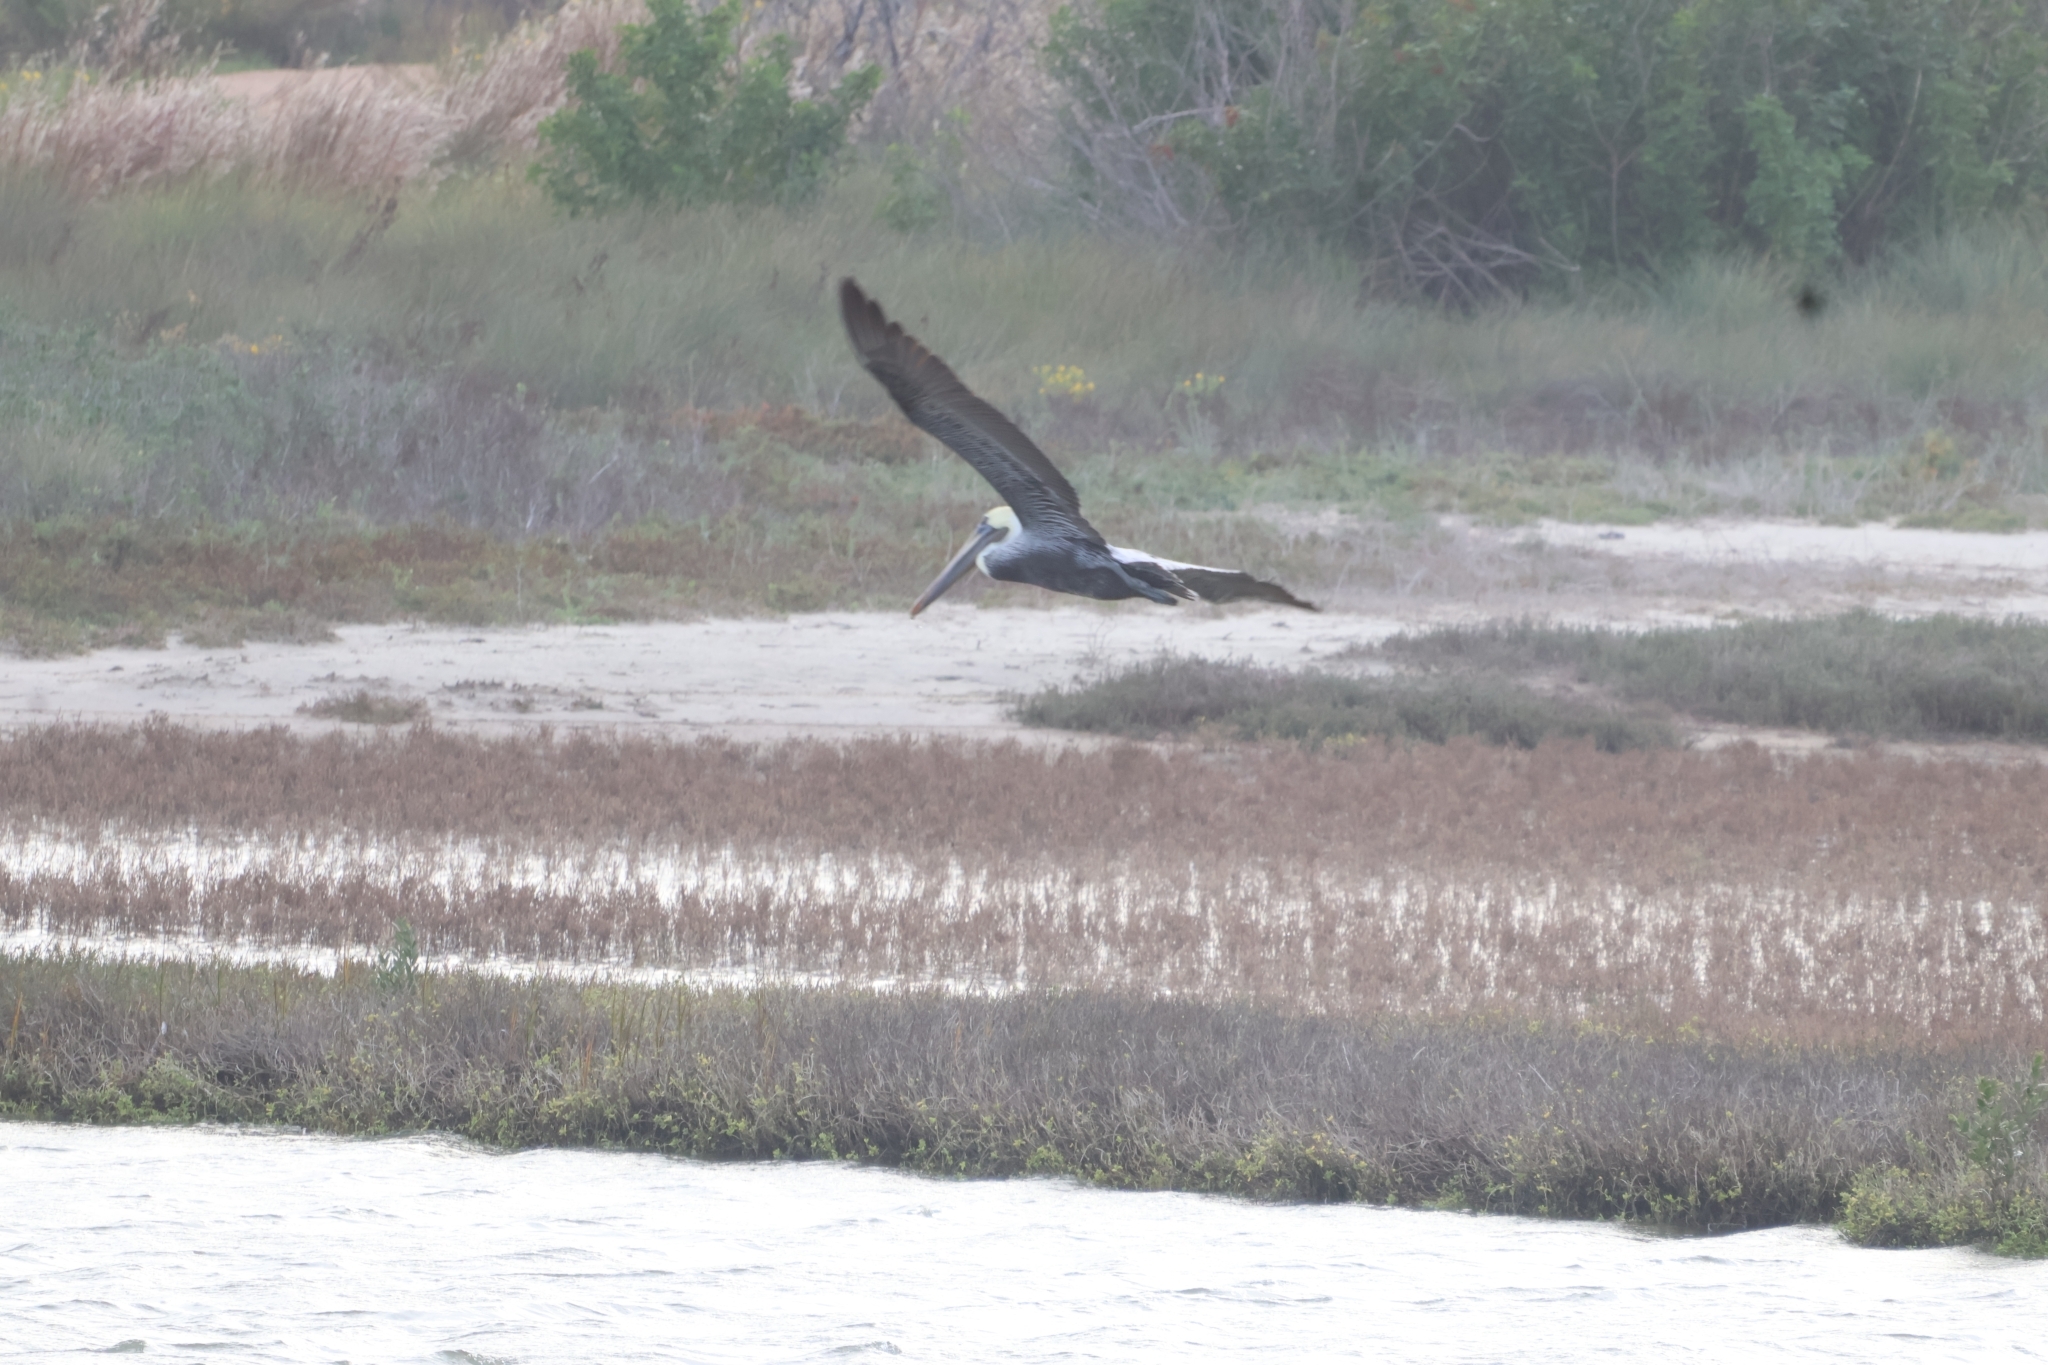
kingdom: Animalia
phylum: Chordata
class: Aves
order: Pelecaniformes
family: Pelecanidae
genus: Pelecanus
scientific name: Pelecanus occidentalis
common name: Brown pelican
